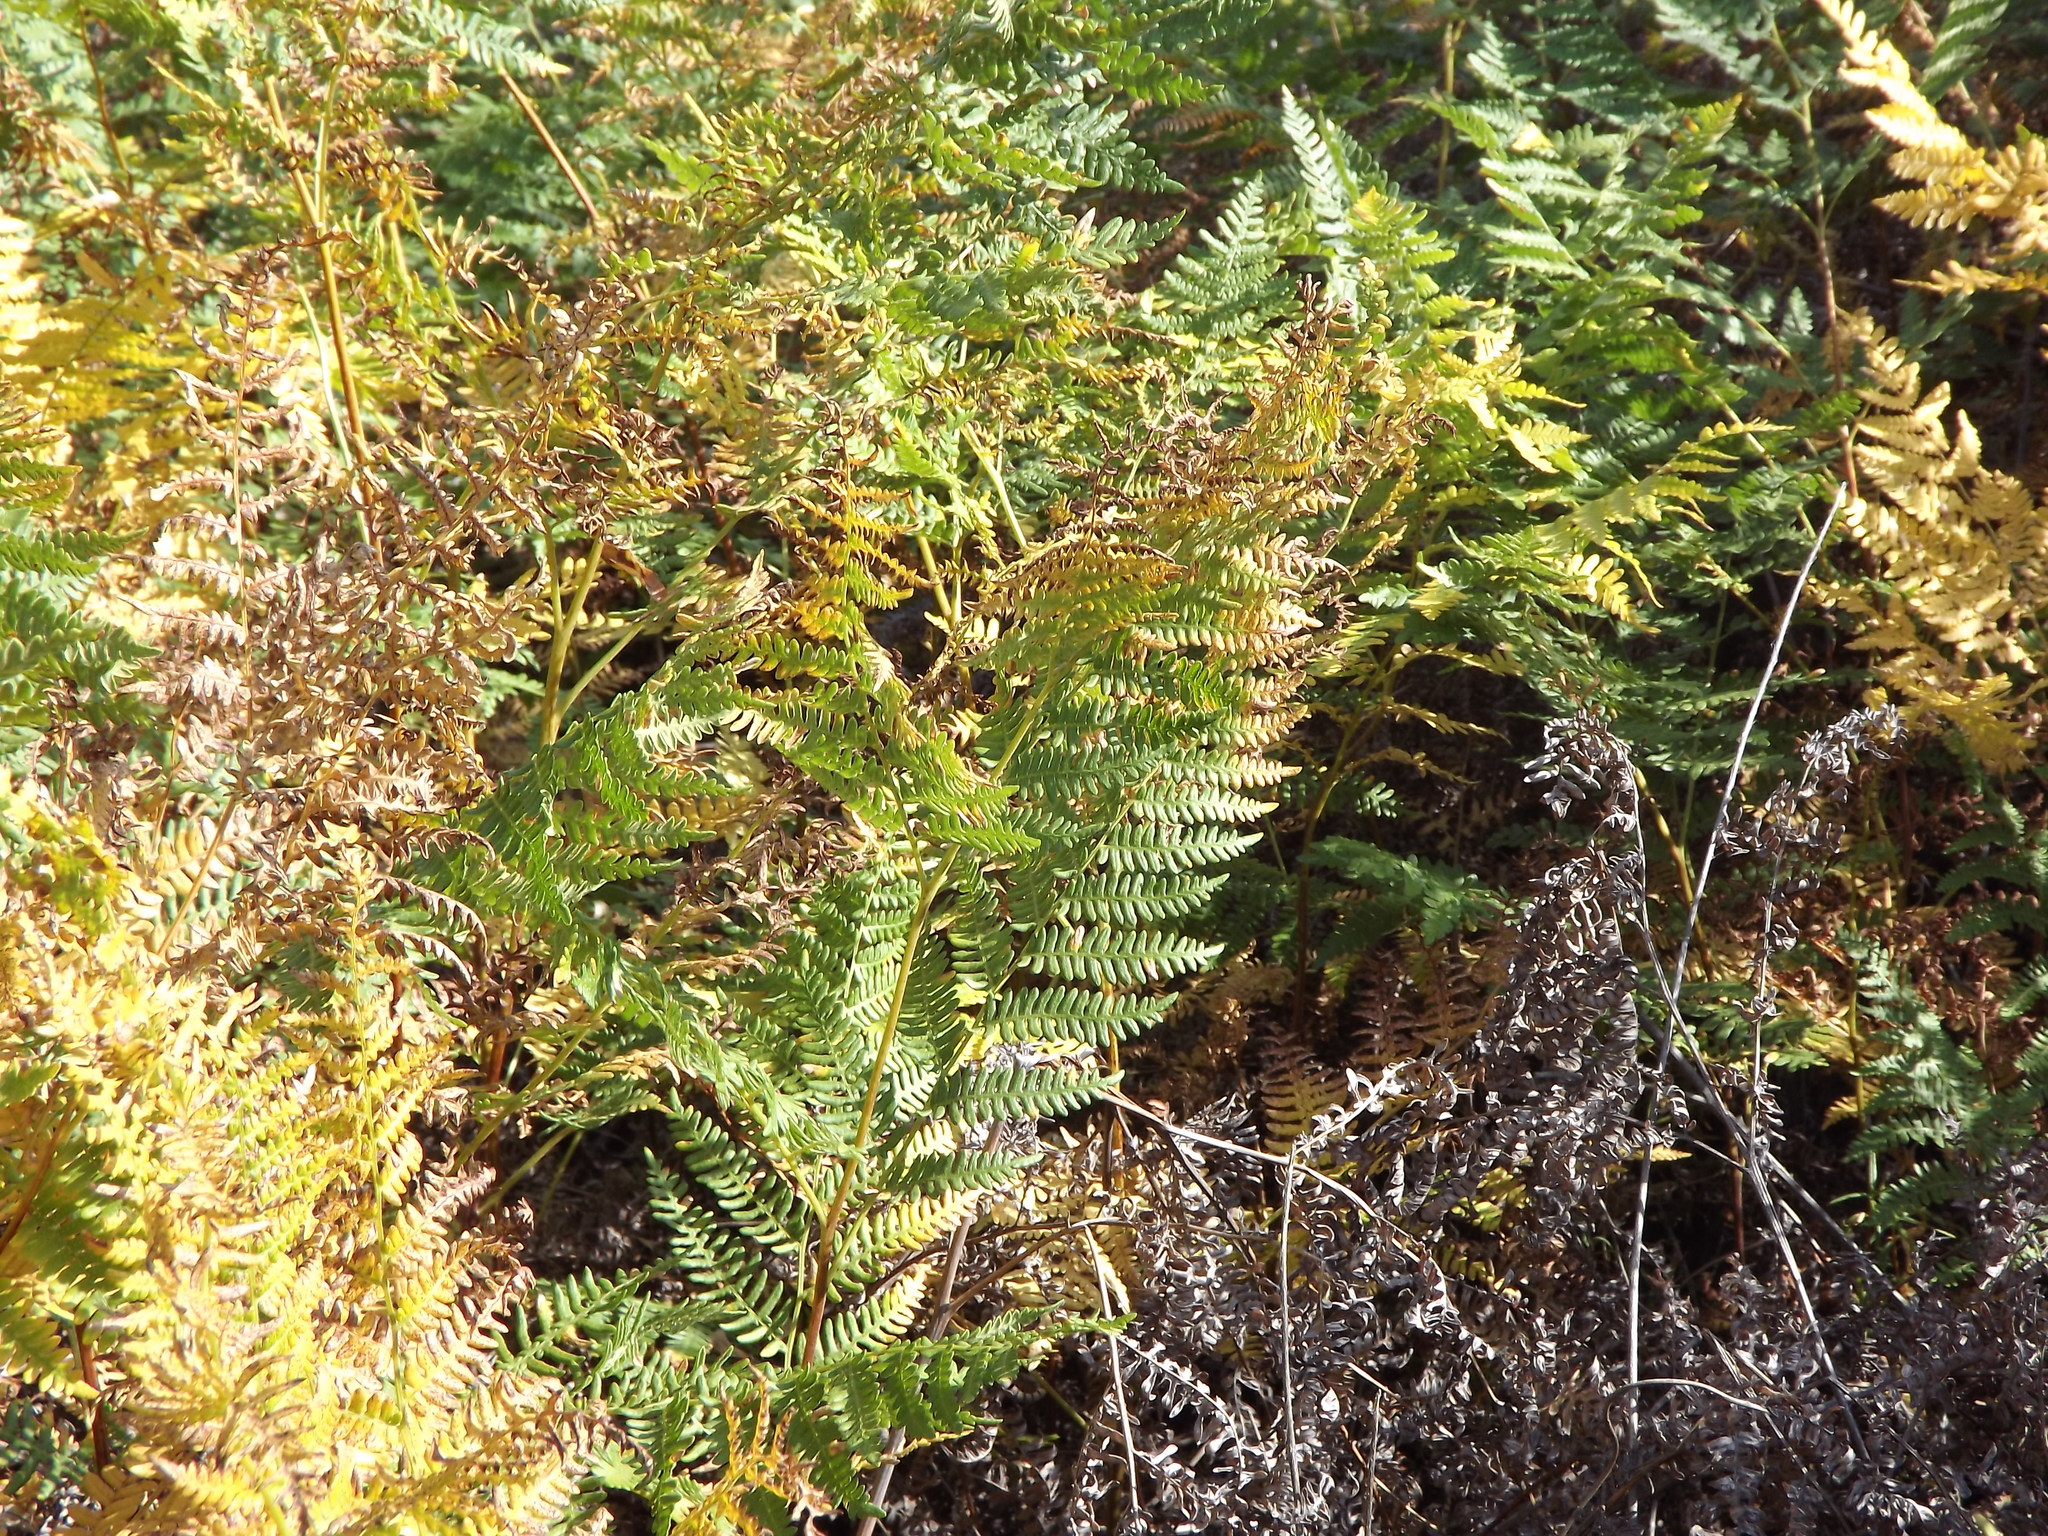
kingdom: Plantae
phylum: Tracheophyta
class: Polypodiopsida
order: Polypodiales
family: Dennstaedtiaceae
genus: Pteridium
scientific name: Pteridium aquilinum
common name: Bracken
